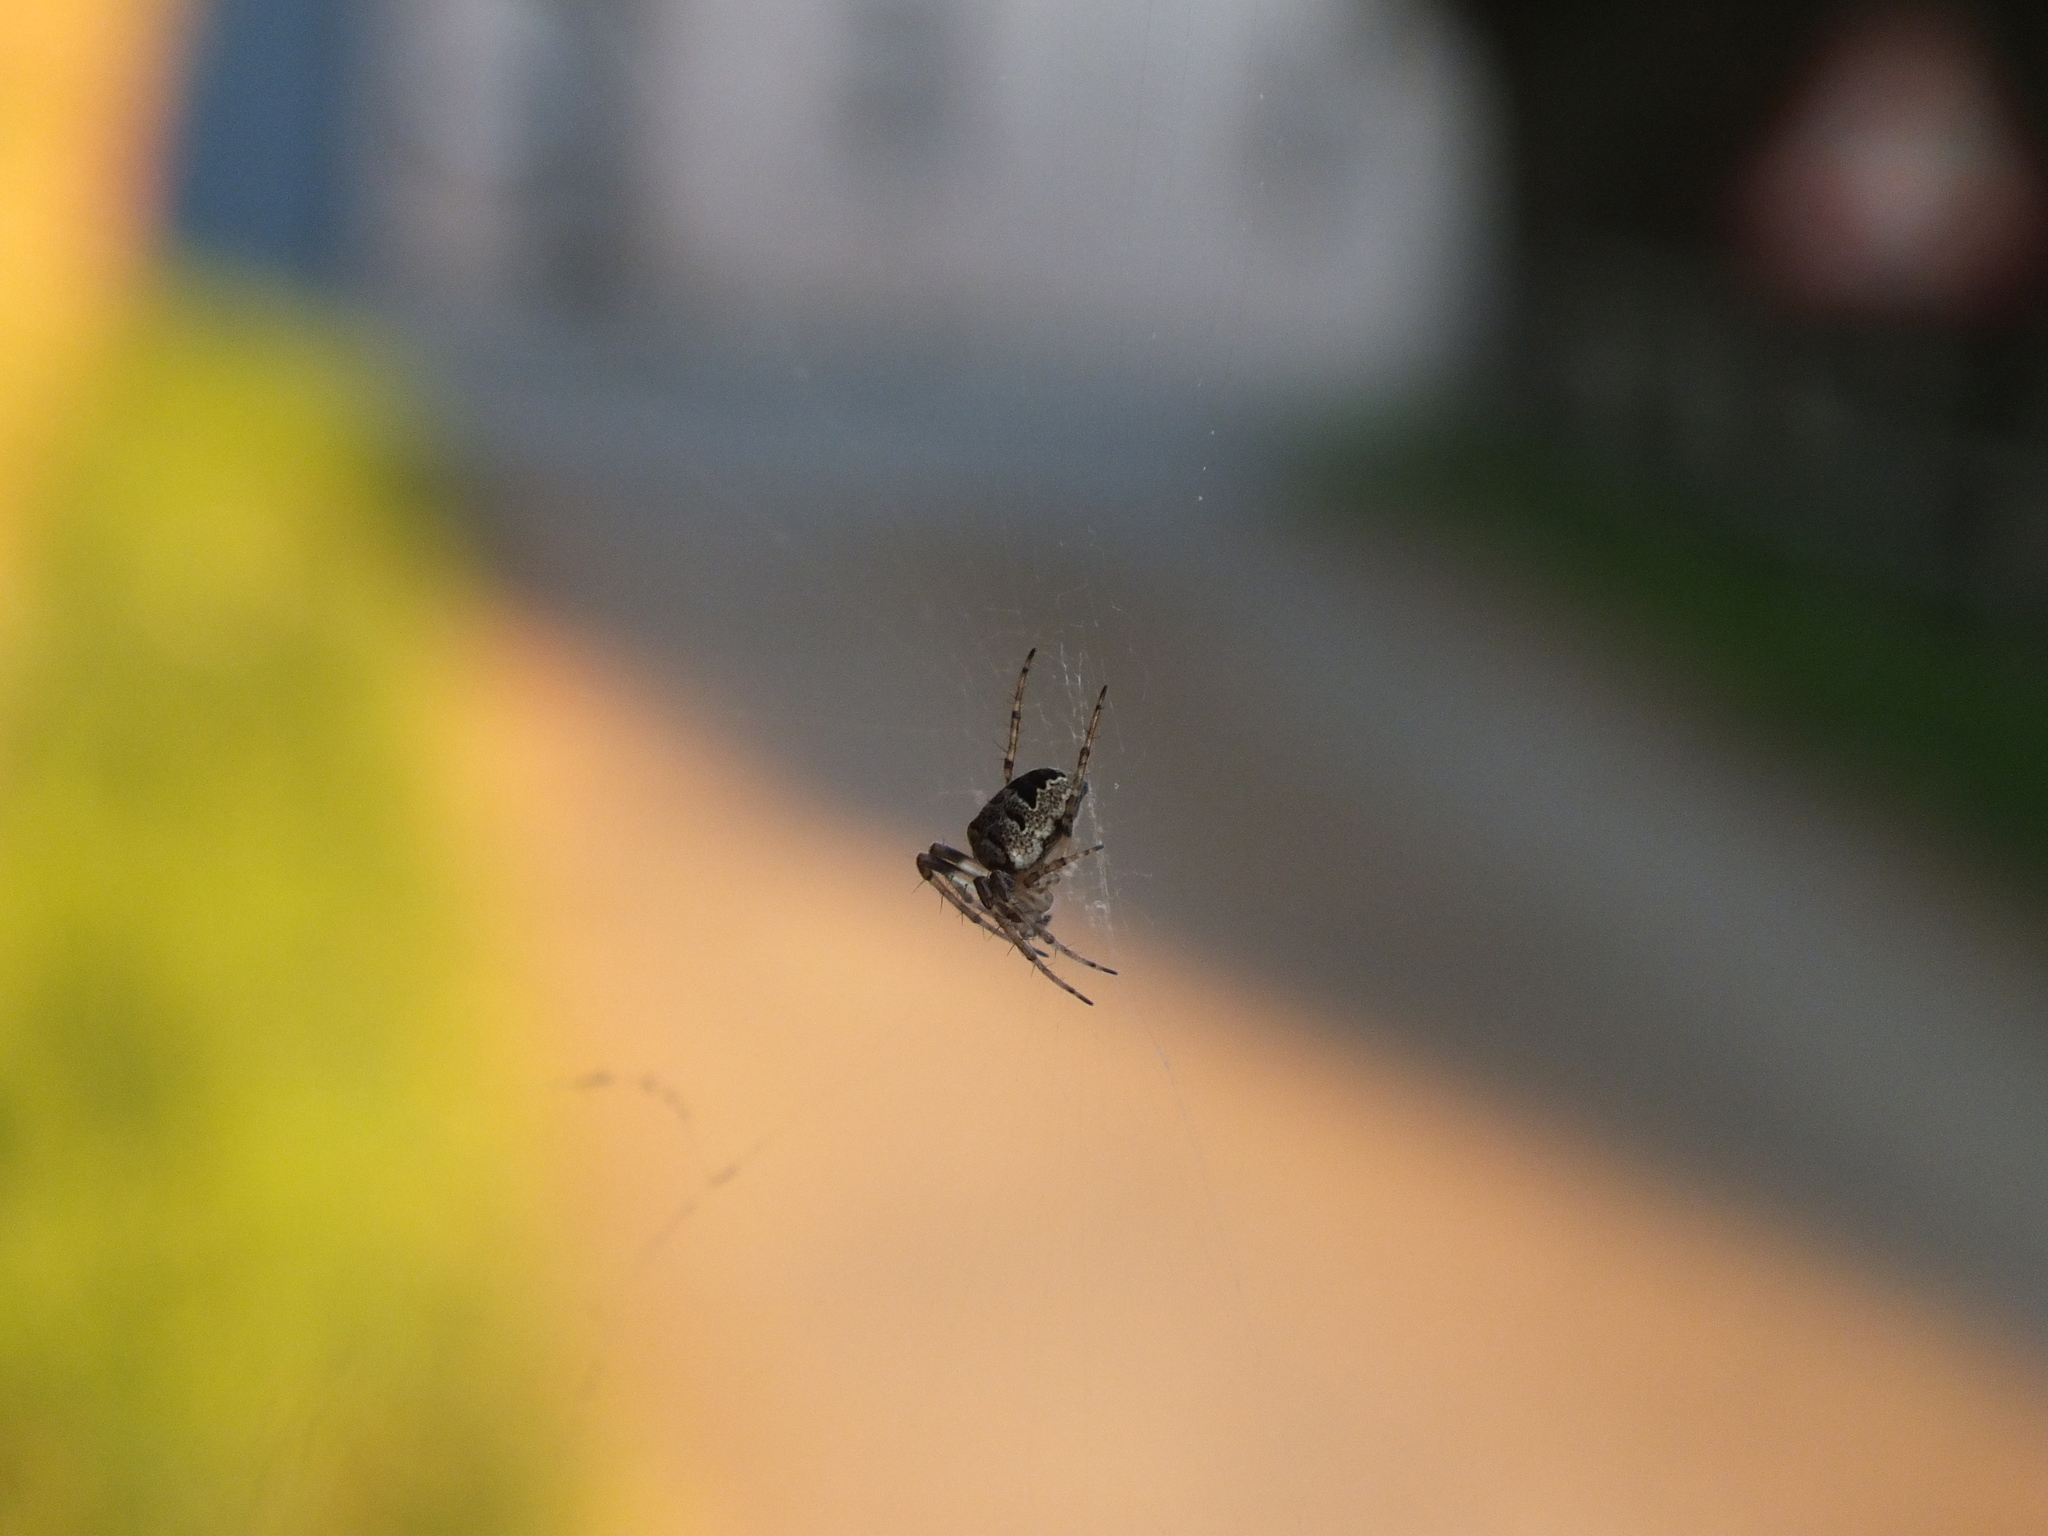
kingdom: Animalia
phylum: Arthropoda
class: Arachnida
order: Araneae
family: Araneidae
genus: Zilla
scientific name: Zilla diodia
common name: Zilla diodia
